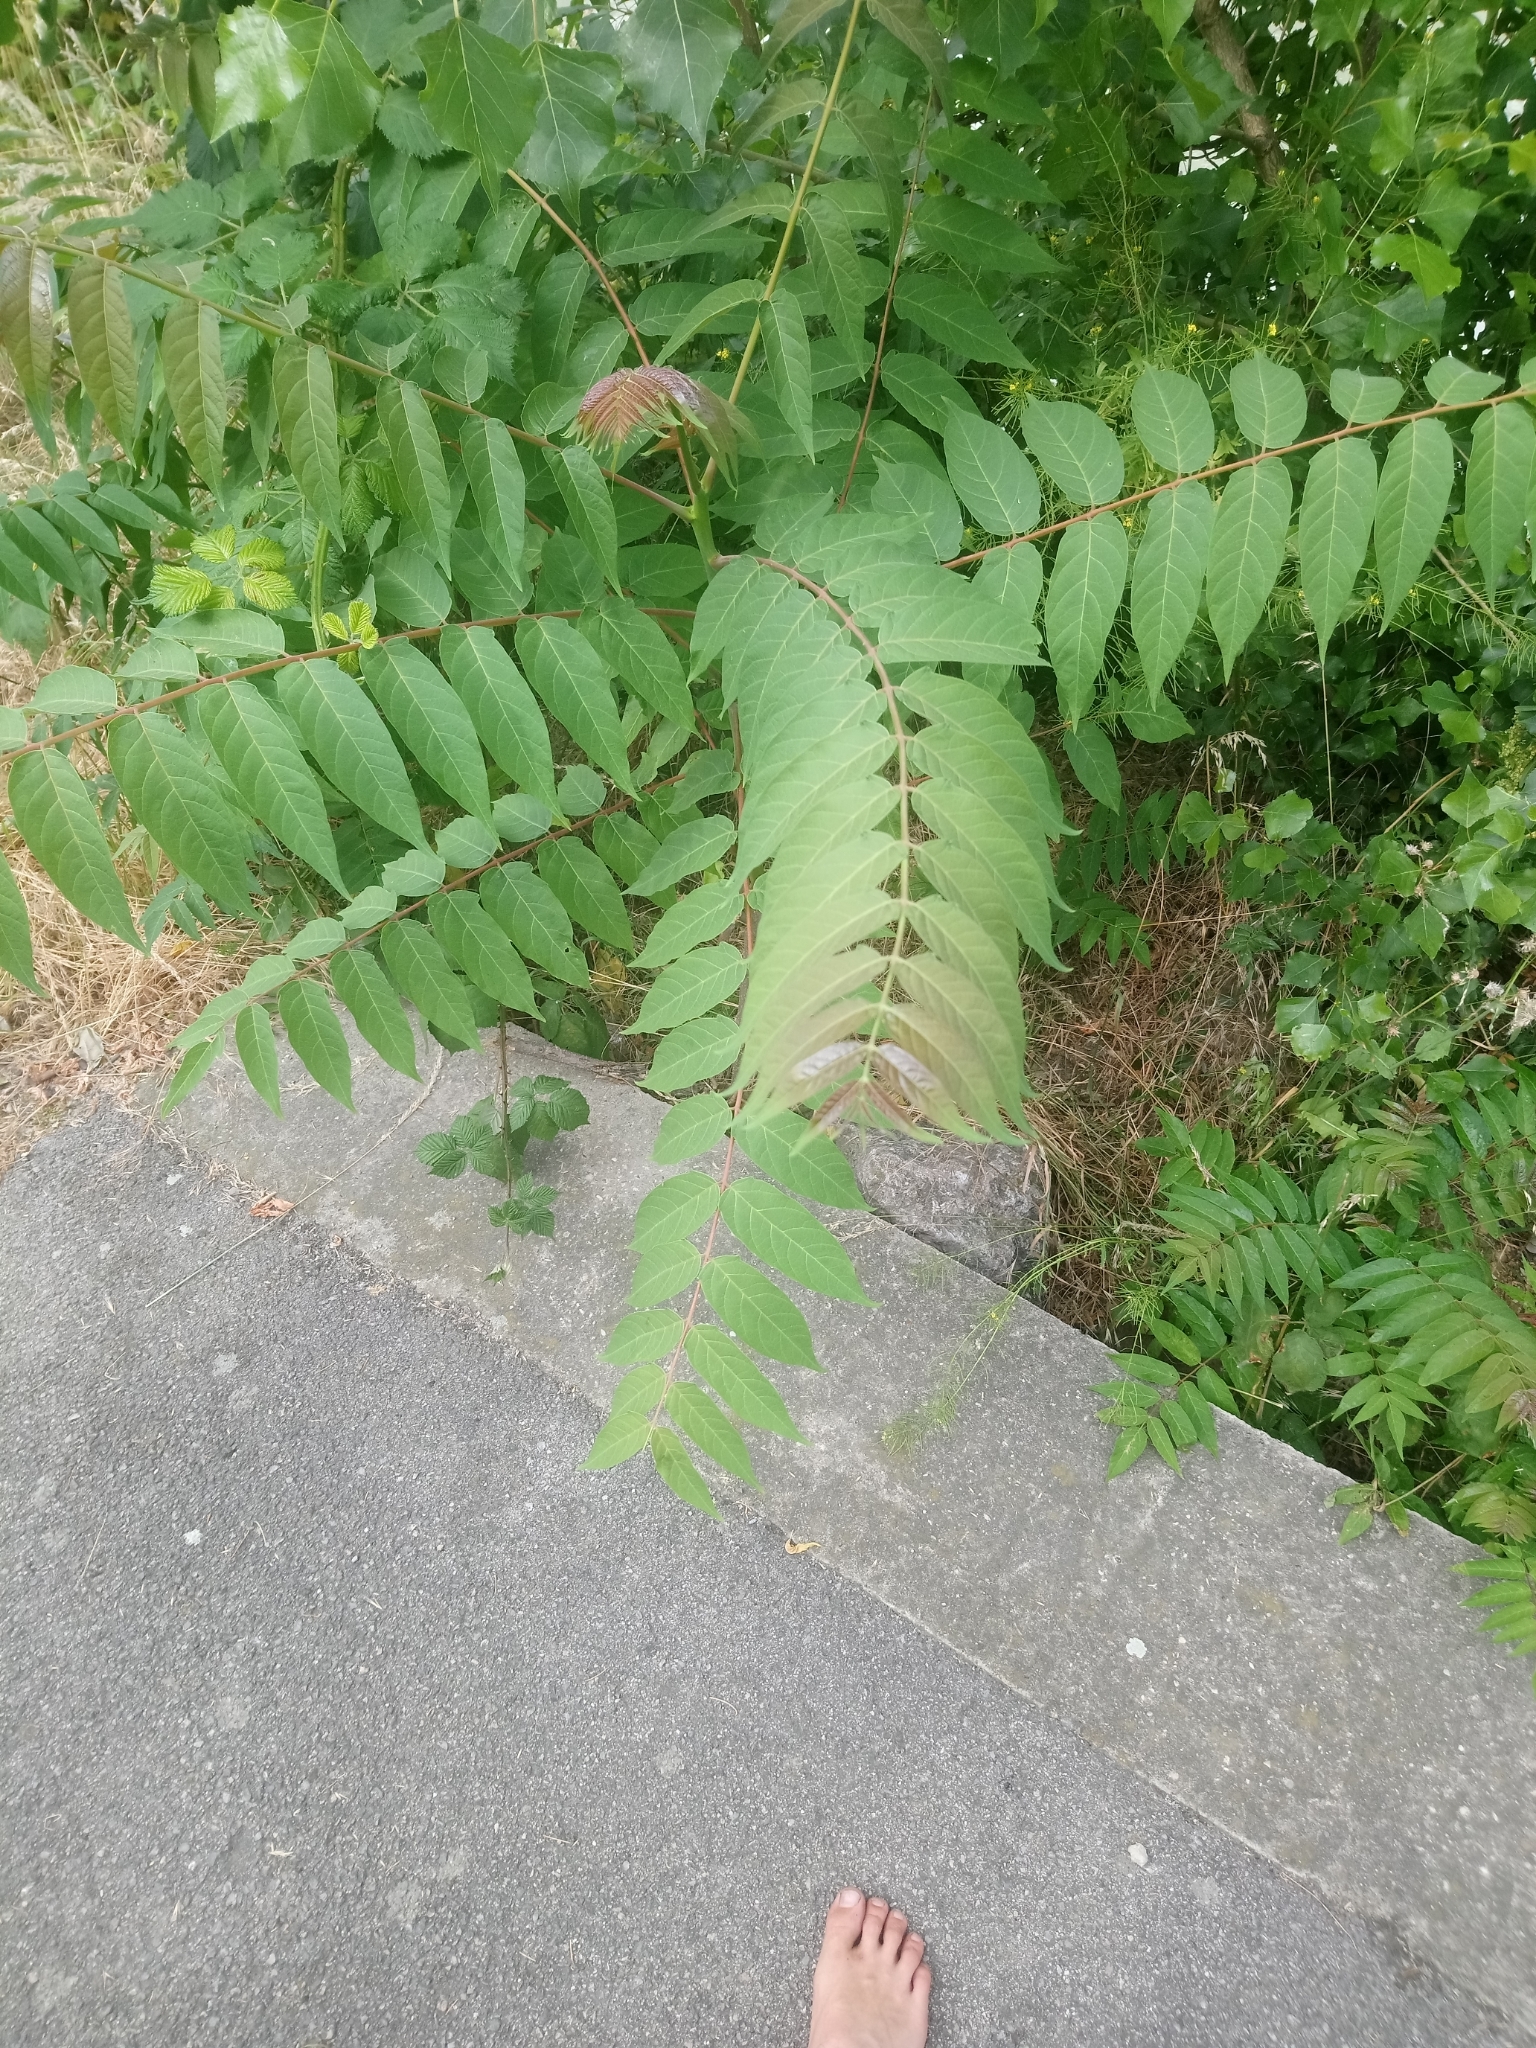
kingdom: Plantae
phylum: Tracheophyta
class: Magnoliopsida
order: Sapindales
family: Simaroubaceae
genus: Ailanthus
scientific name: Ailanthus altissima
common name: Tree-of-heaven
